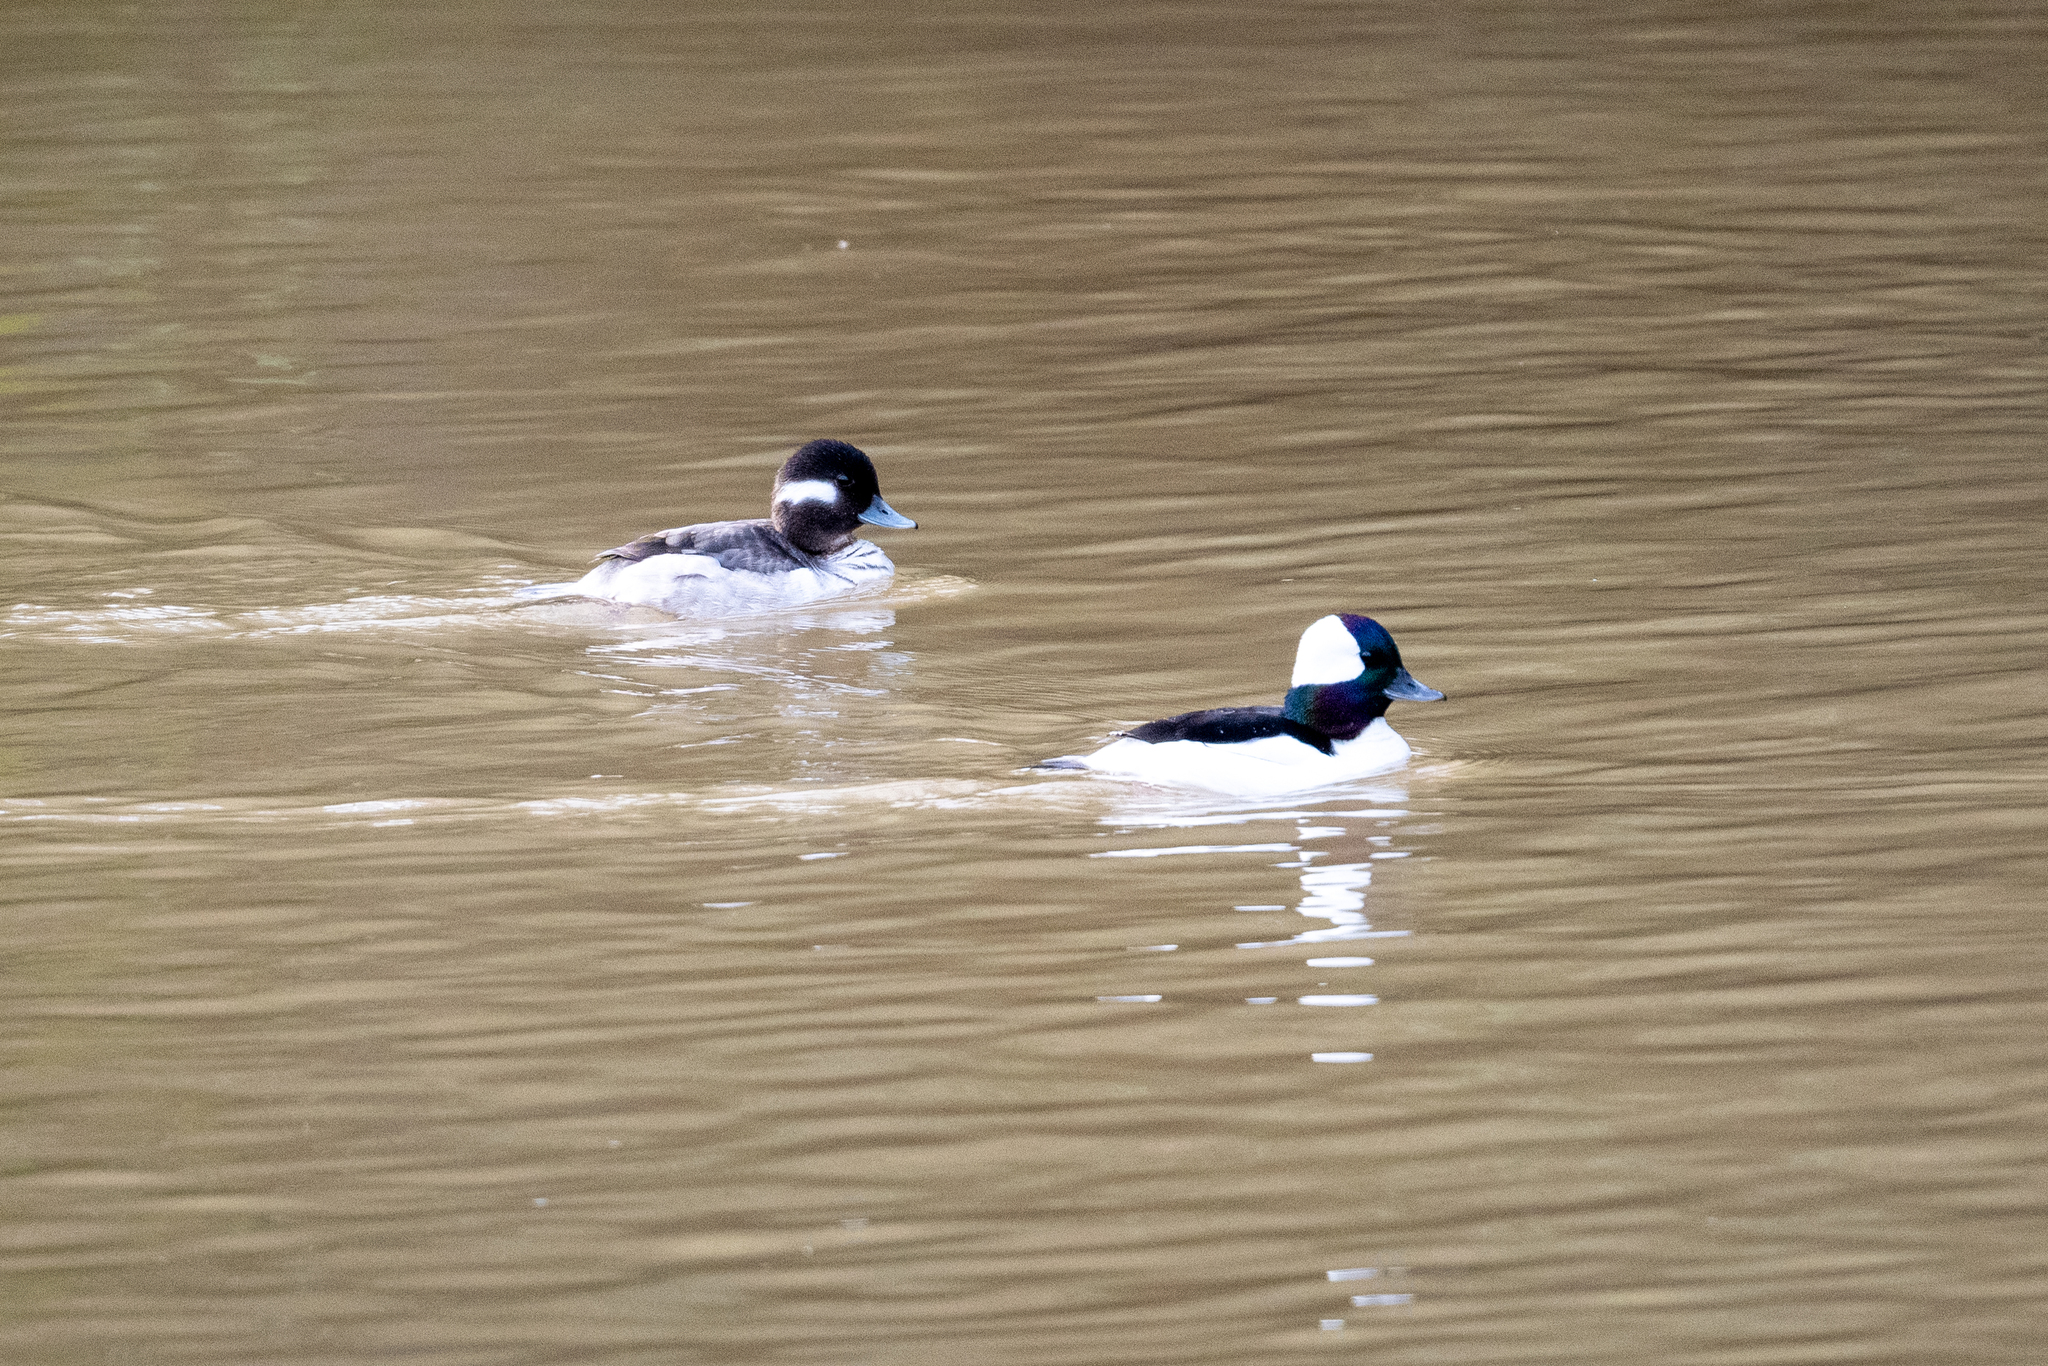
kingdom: Animalia
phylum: Chordata
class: Aves
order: Anseriformes
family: Anatidae
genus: Bucephala
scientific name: Bucephala albeola
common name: Bufflehead
